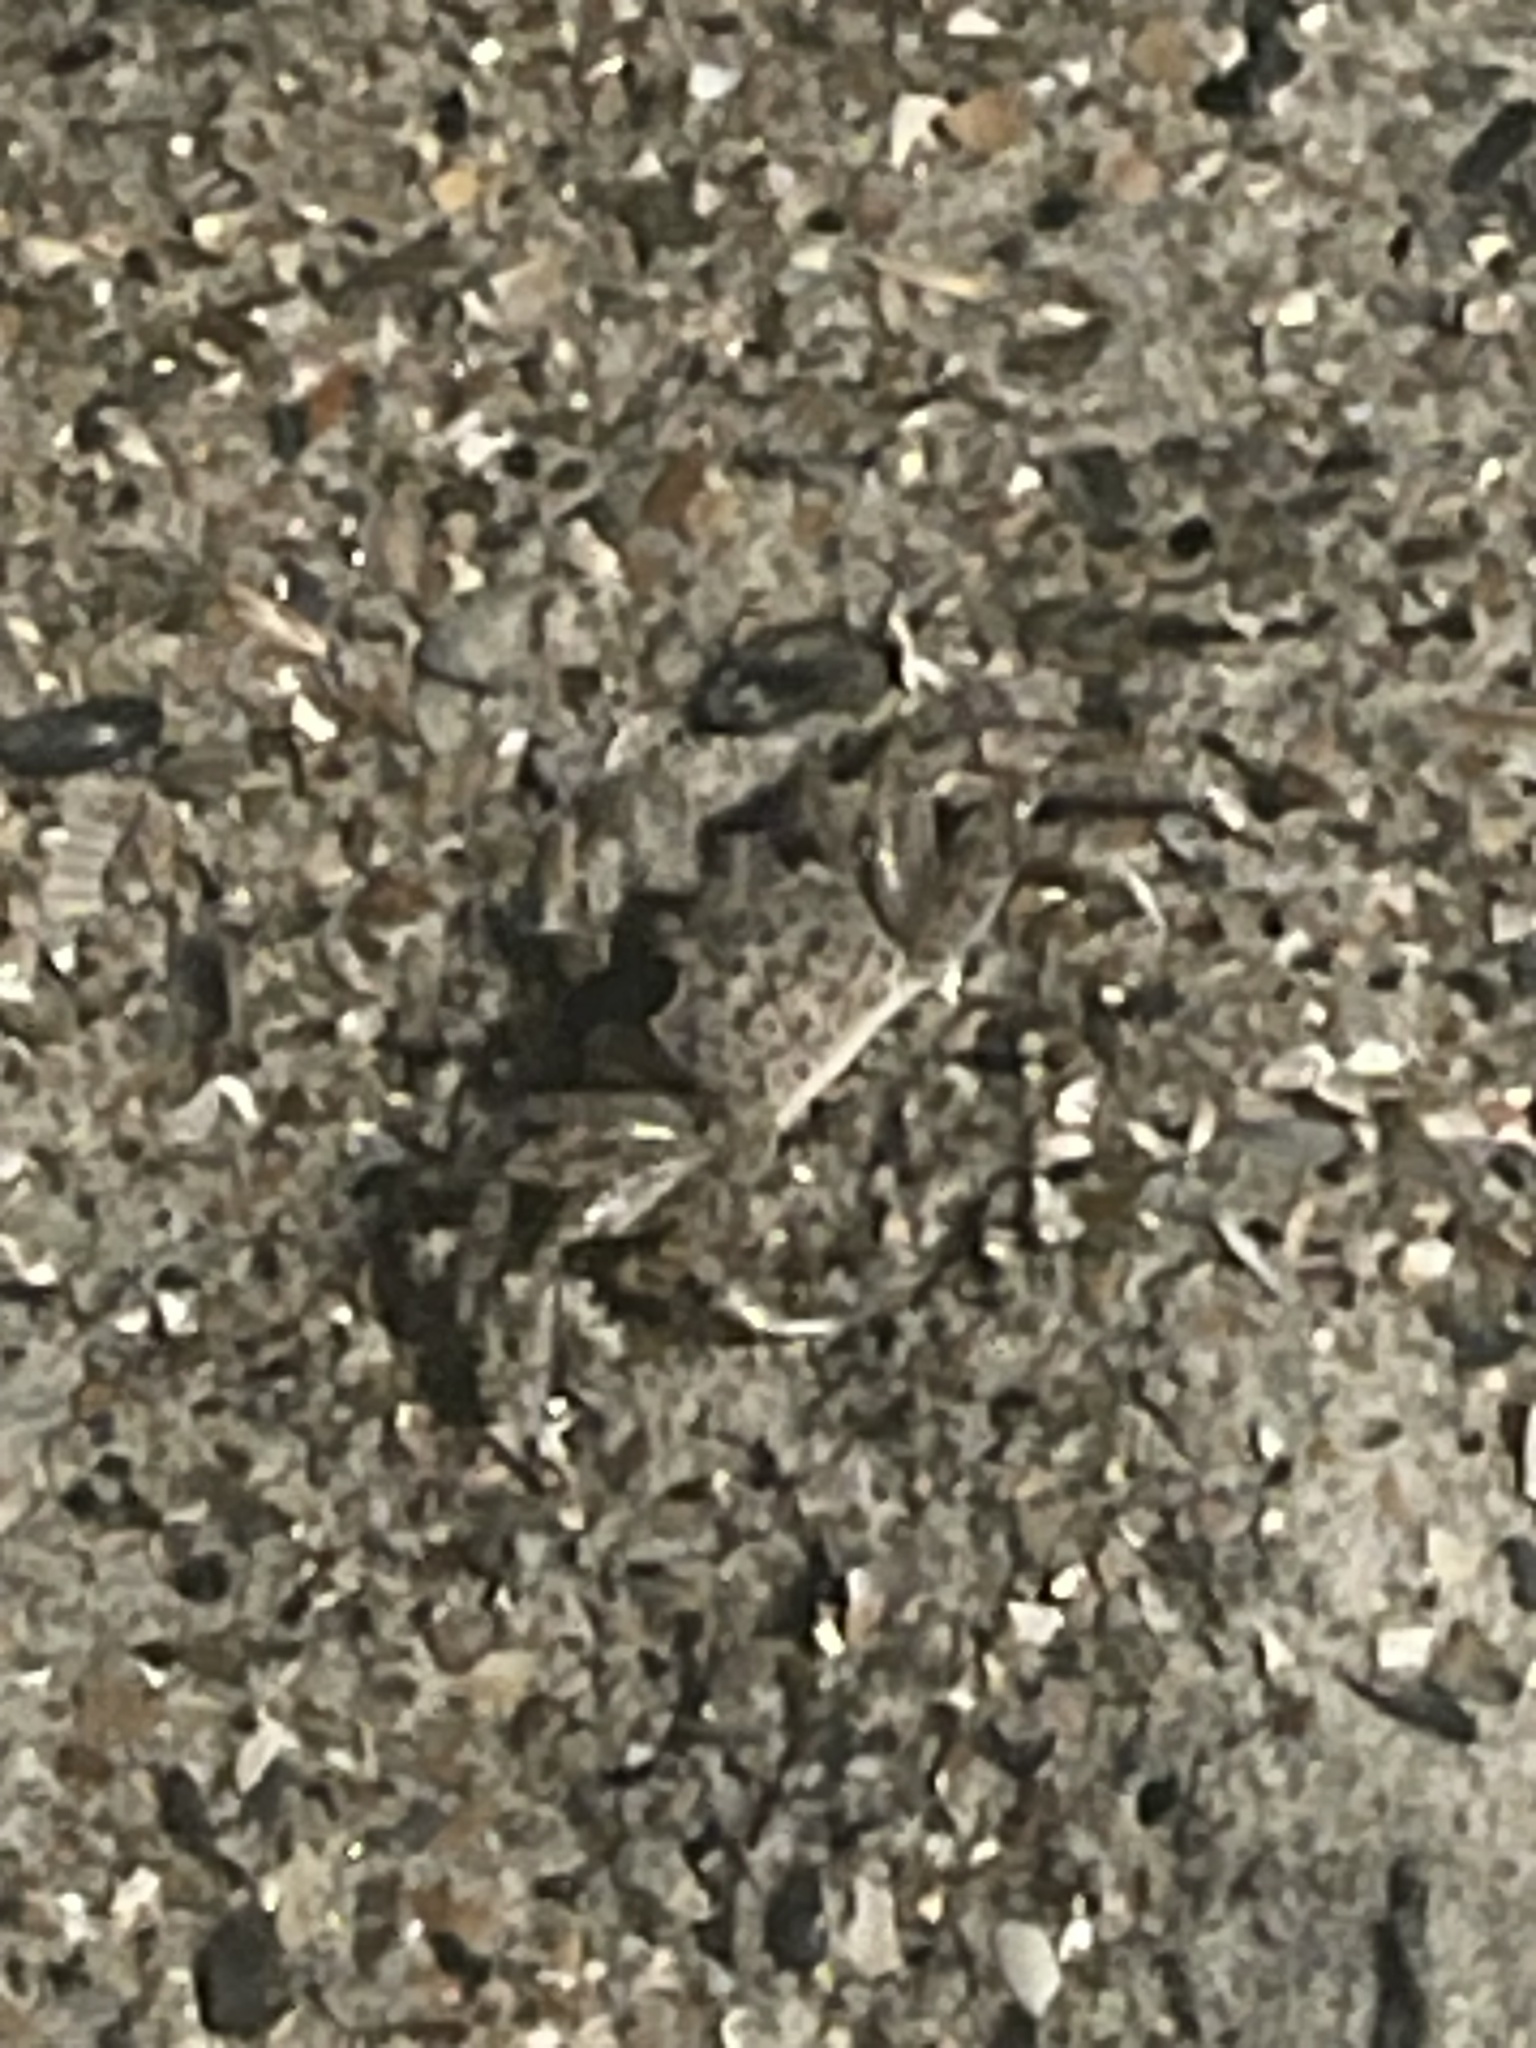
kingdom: Animalia
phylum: Arthropoda
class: Malacostraca
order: Decapoda
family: Ocypodidae
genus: Ocypode
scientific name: Ocypode quadrata
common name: Ghost crab
